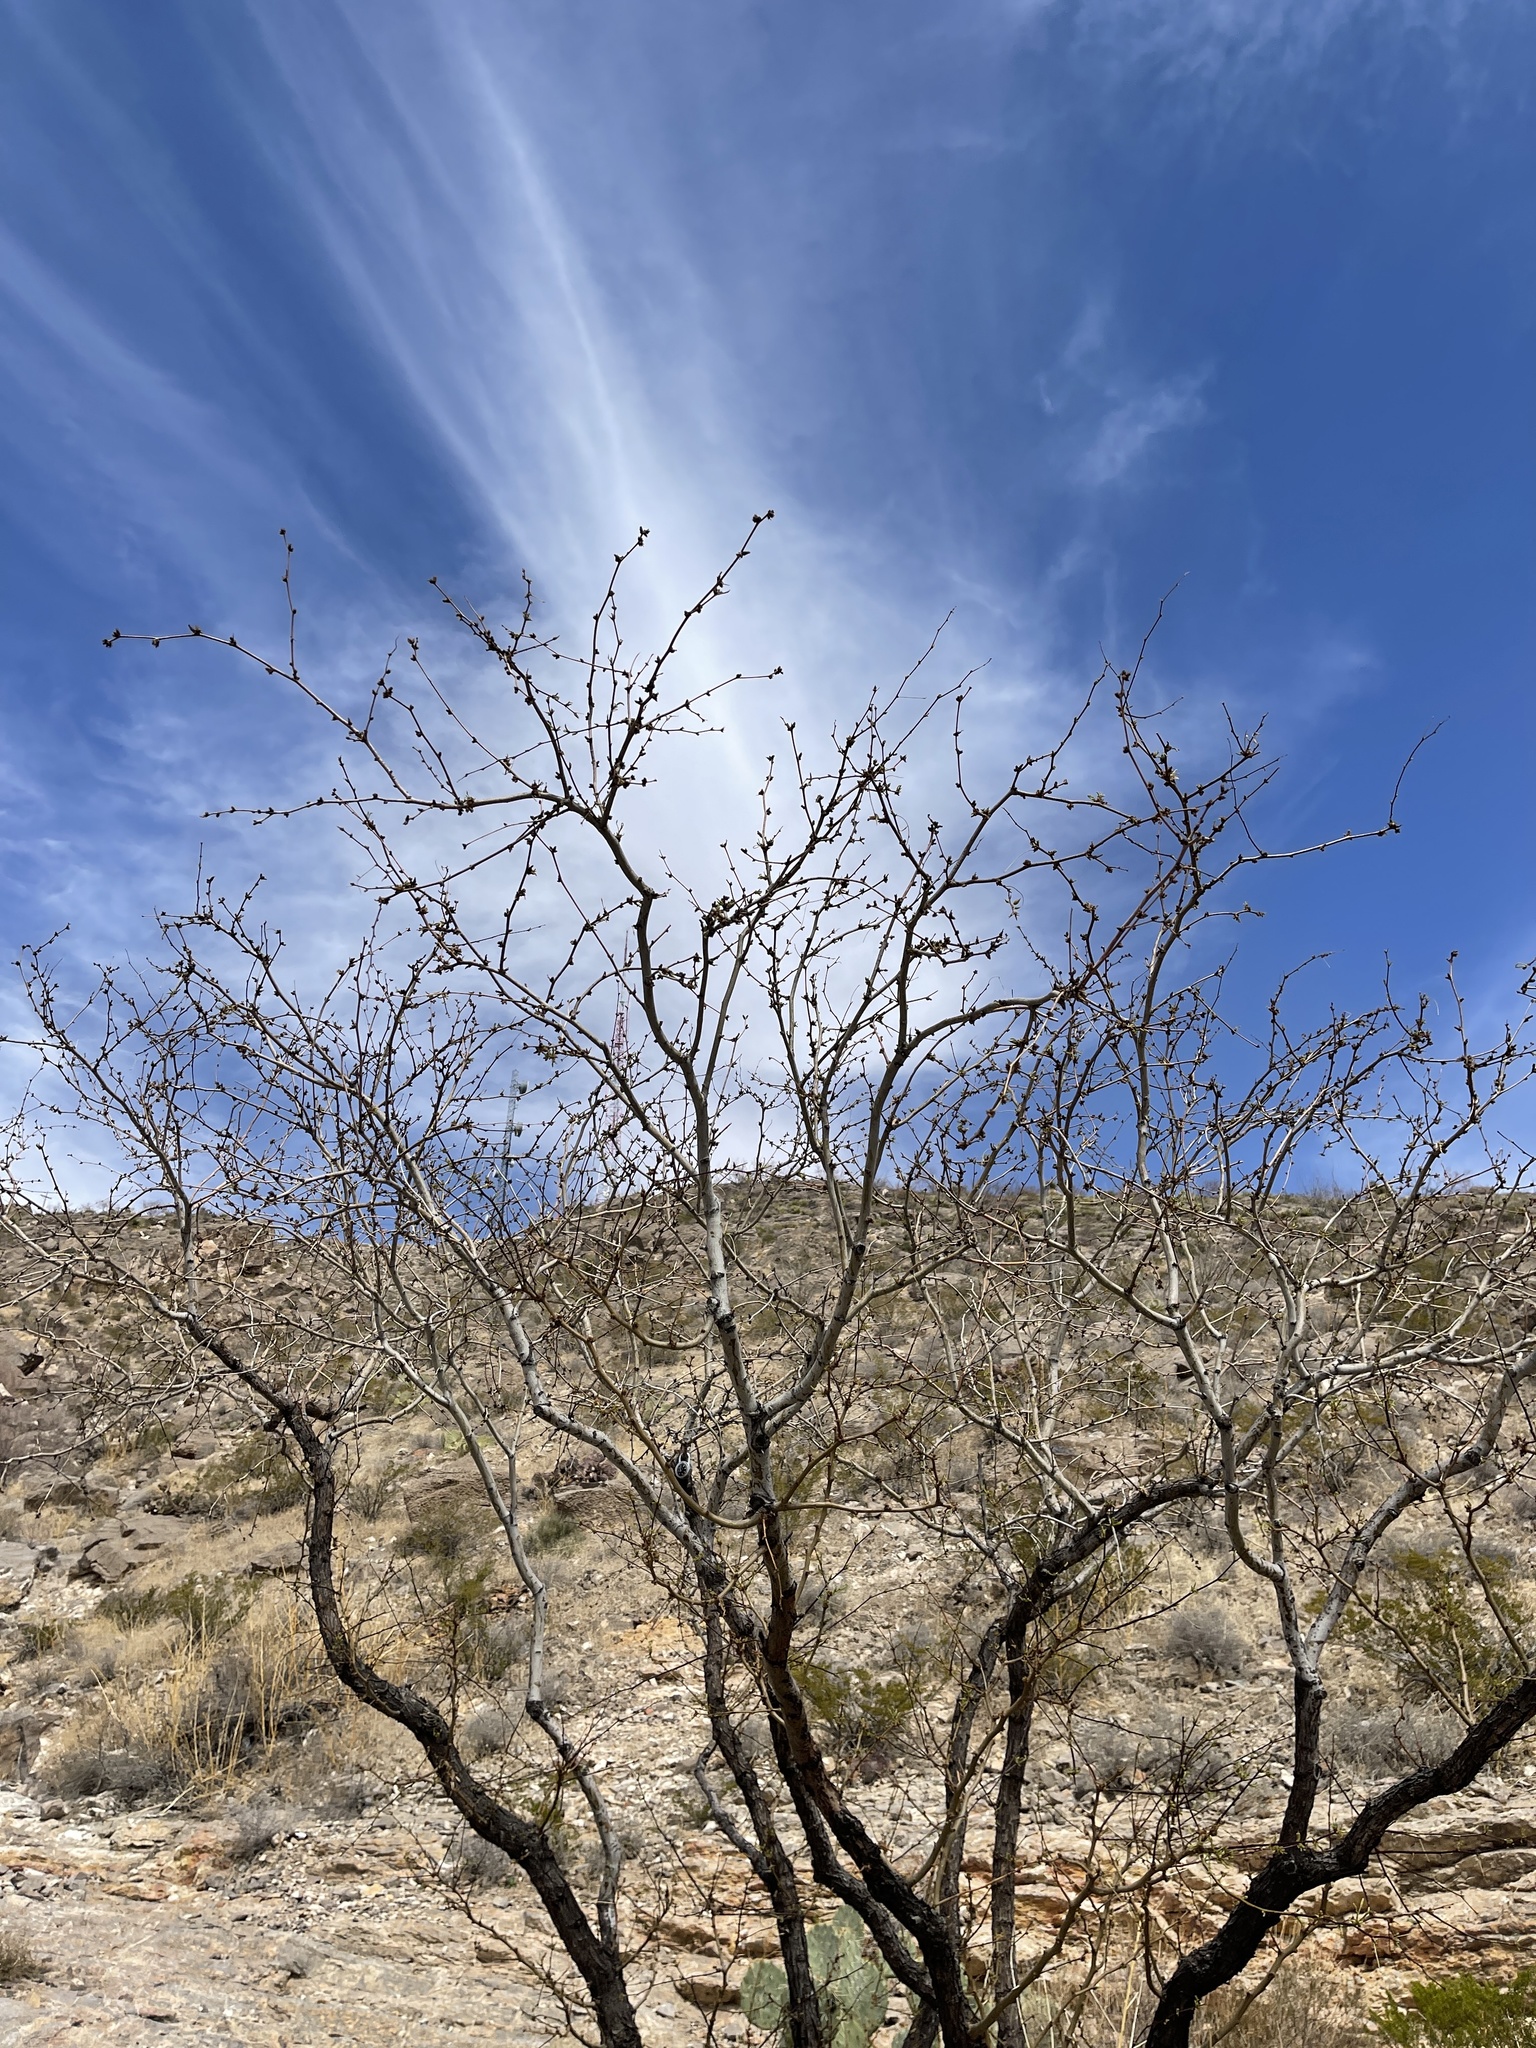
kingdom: Plantae
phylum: Tracheophyta
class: Magnoliopsida
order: Fabales
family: Fabaceae
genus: Prosopis
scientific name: Prosopis glandulosa
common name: Honey mesquite
